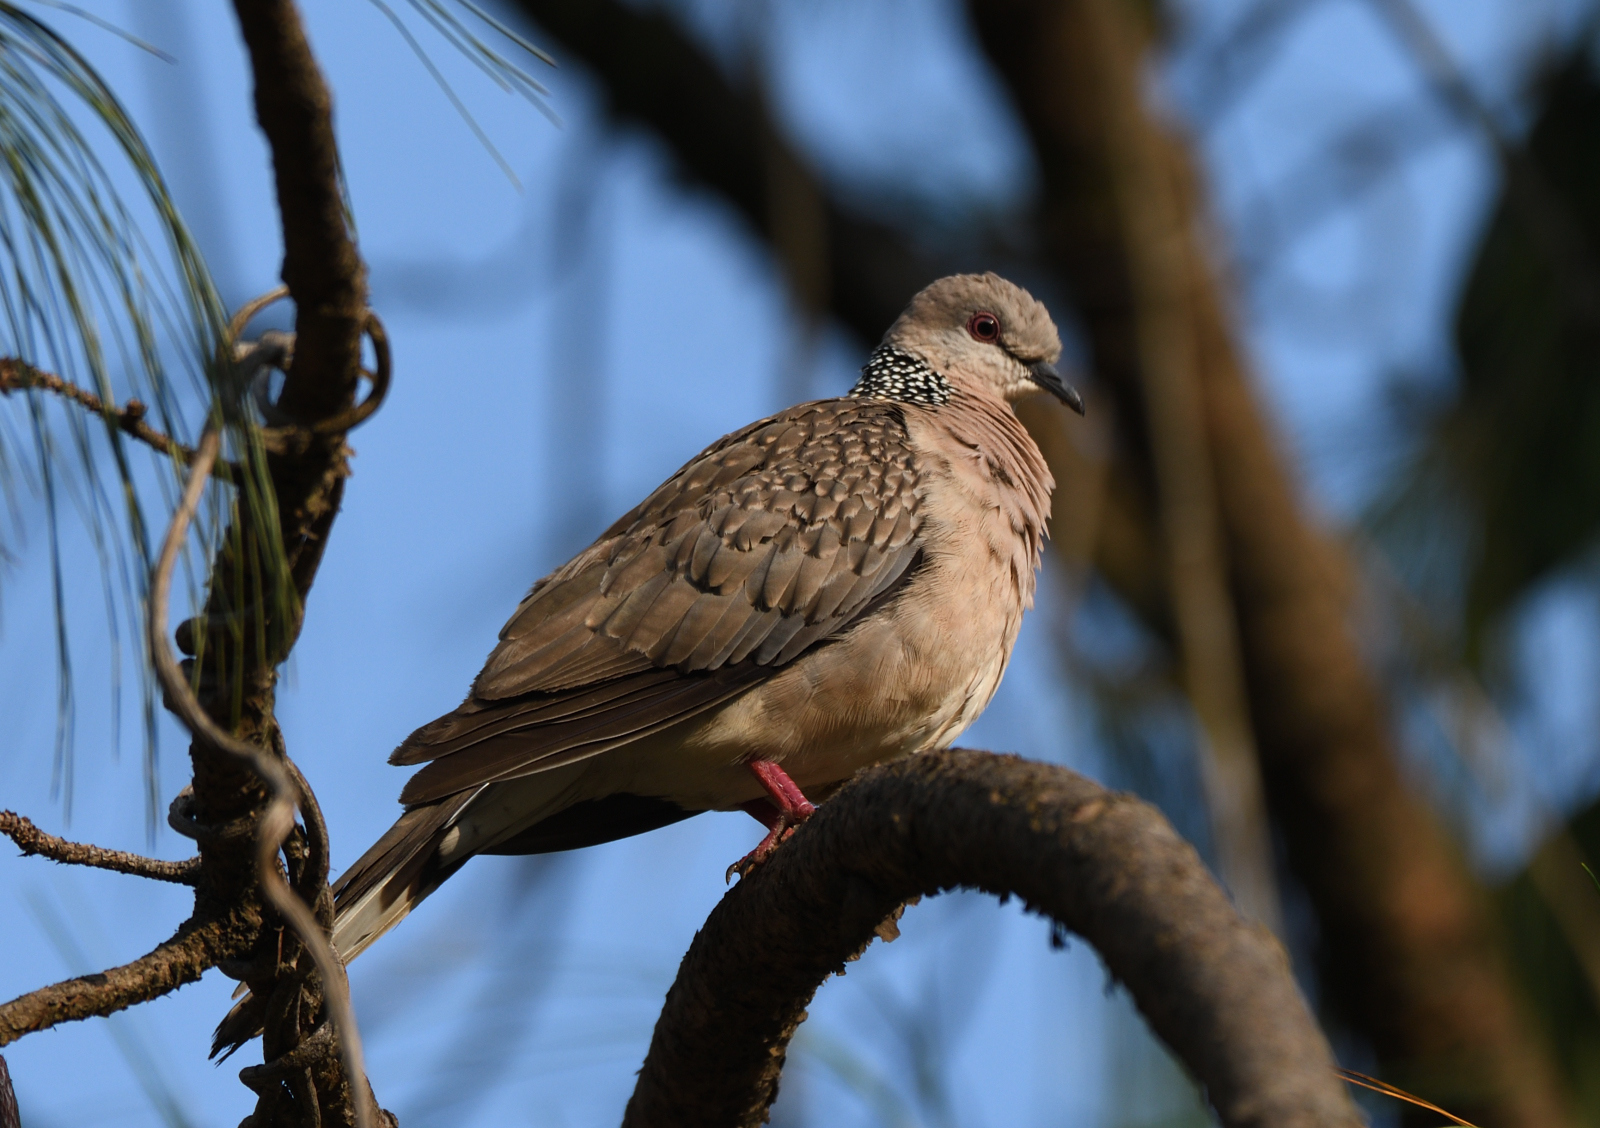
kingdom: Animalia
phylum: Chordata
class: Aves
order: Columbiformes
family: Columbidae
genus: Spilopelia
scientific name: Spilopelia chinensis
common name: Spotted dove
